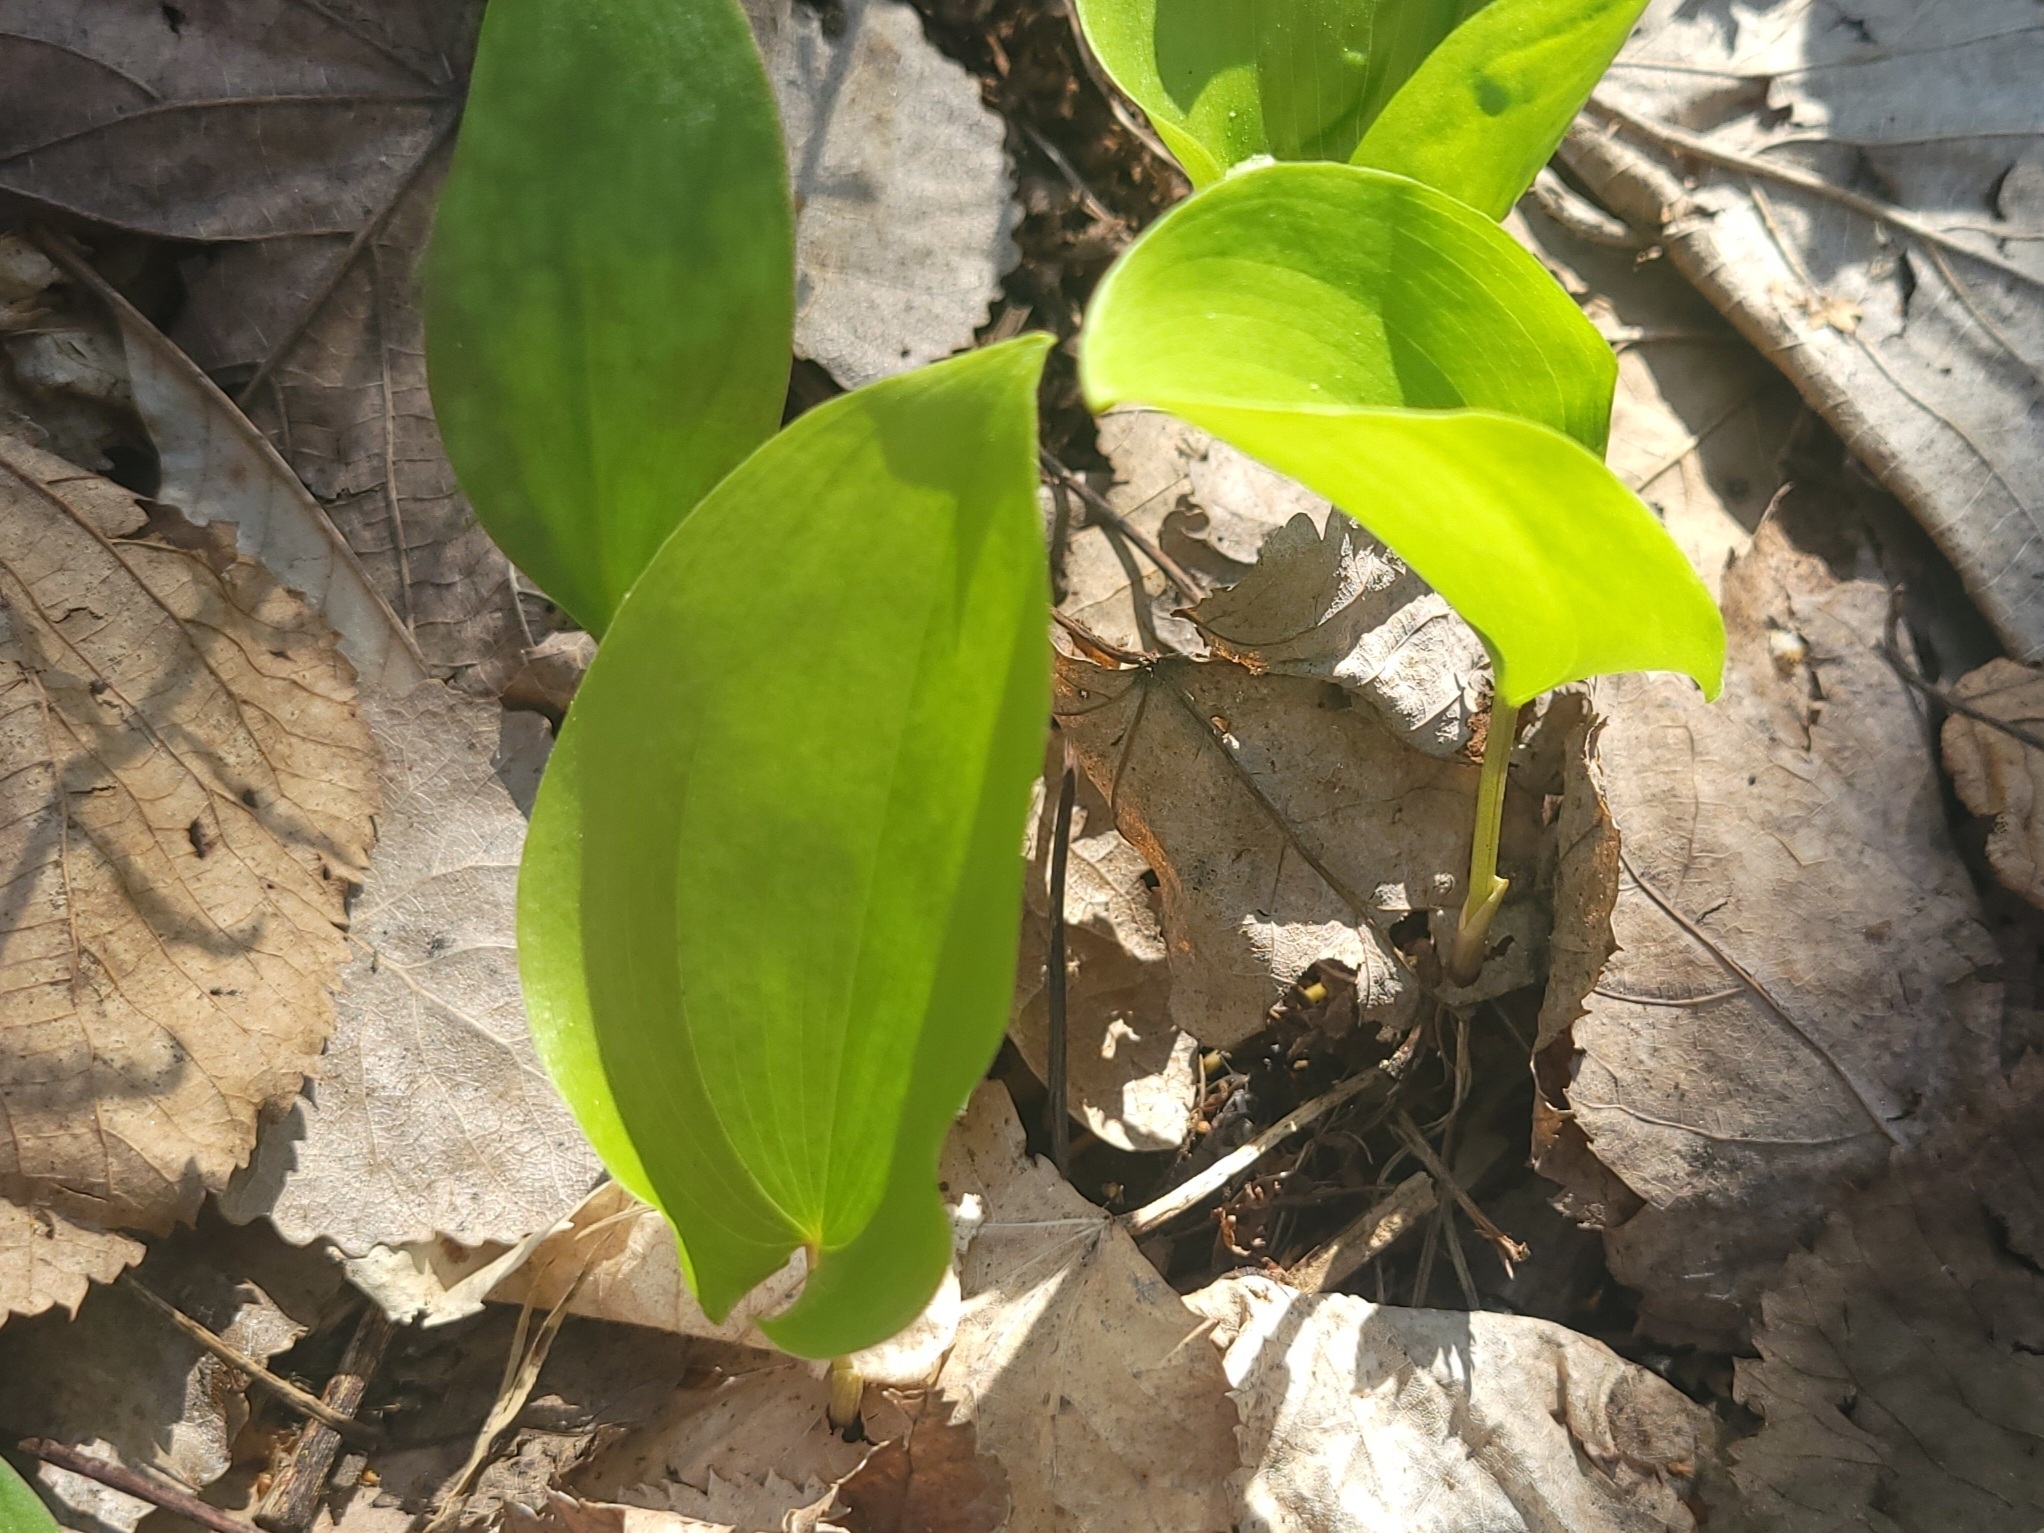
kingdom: Plantae
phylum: Tracheophyta
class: Liliopsida
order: Asparagales
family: Asparagaceae
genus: Maianthemum
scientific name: Maianthemum canadense
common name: False lily-of-the-valley
